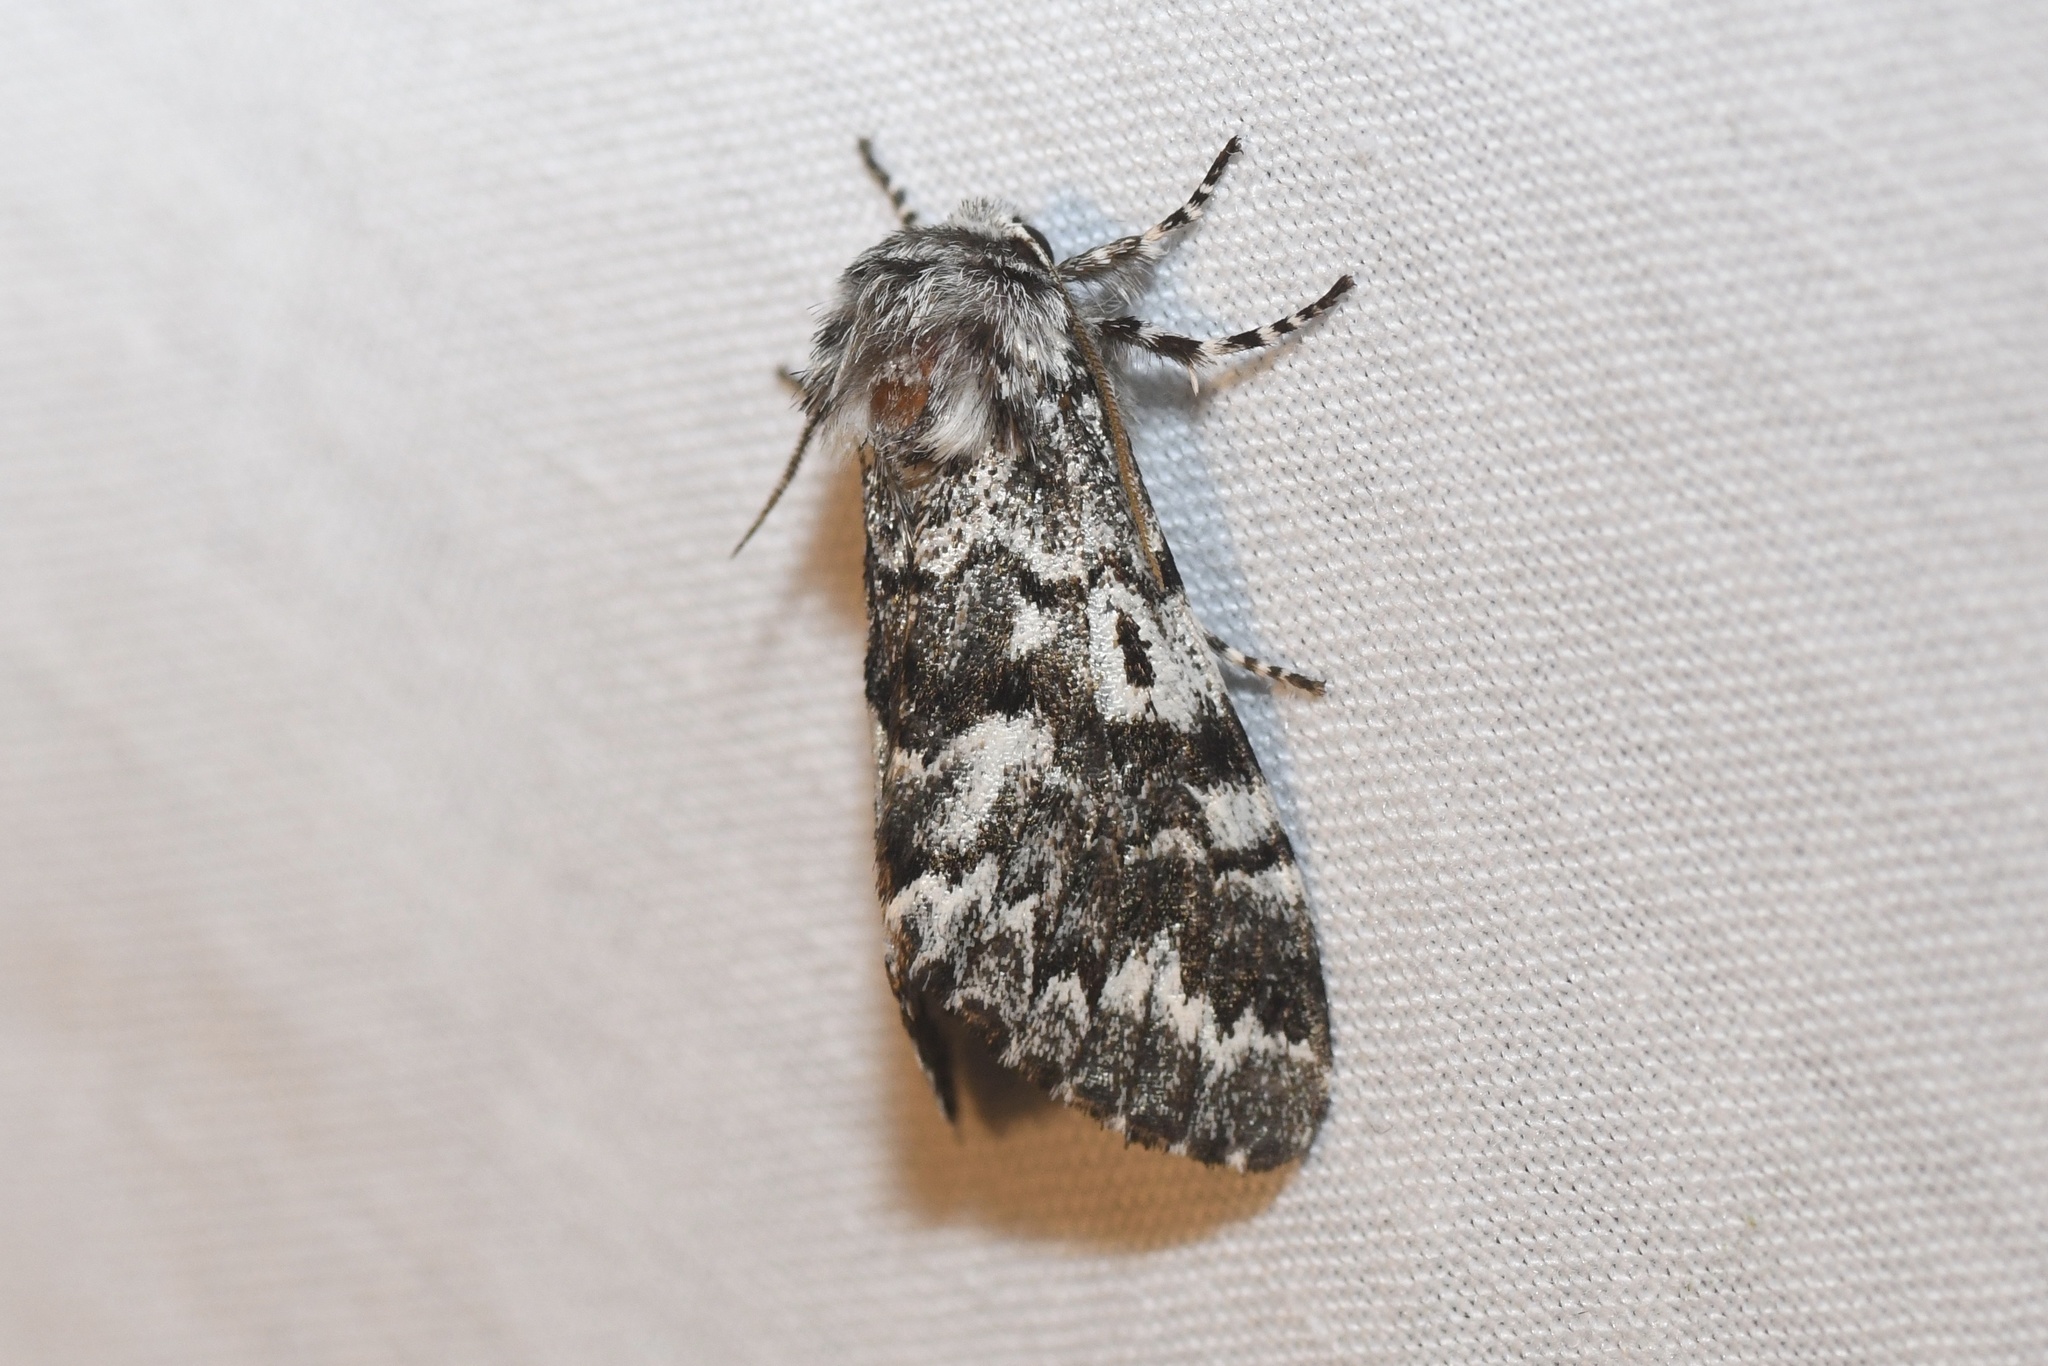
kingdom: Animalia
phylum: Arthropoda
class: Insecta
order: Lepidoptera
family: Noctuidae
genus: Panthea
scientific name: Panthea acronyctoides
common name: Black zigzag moth
